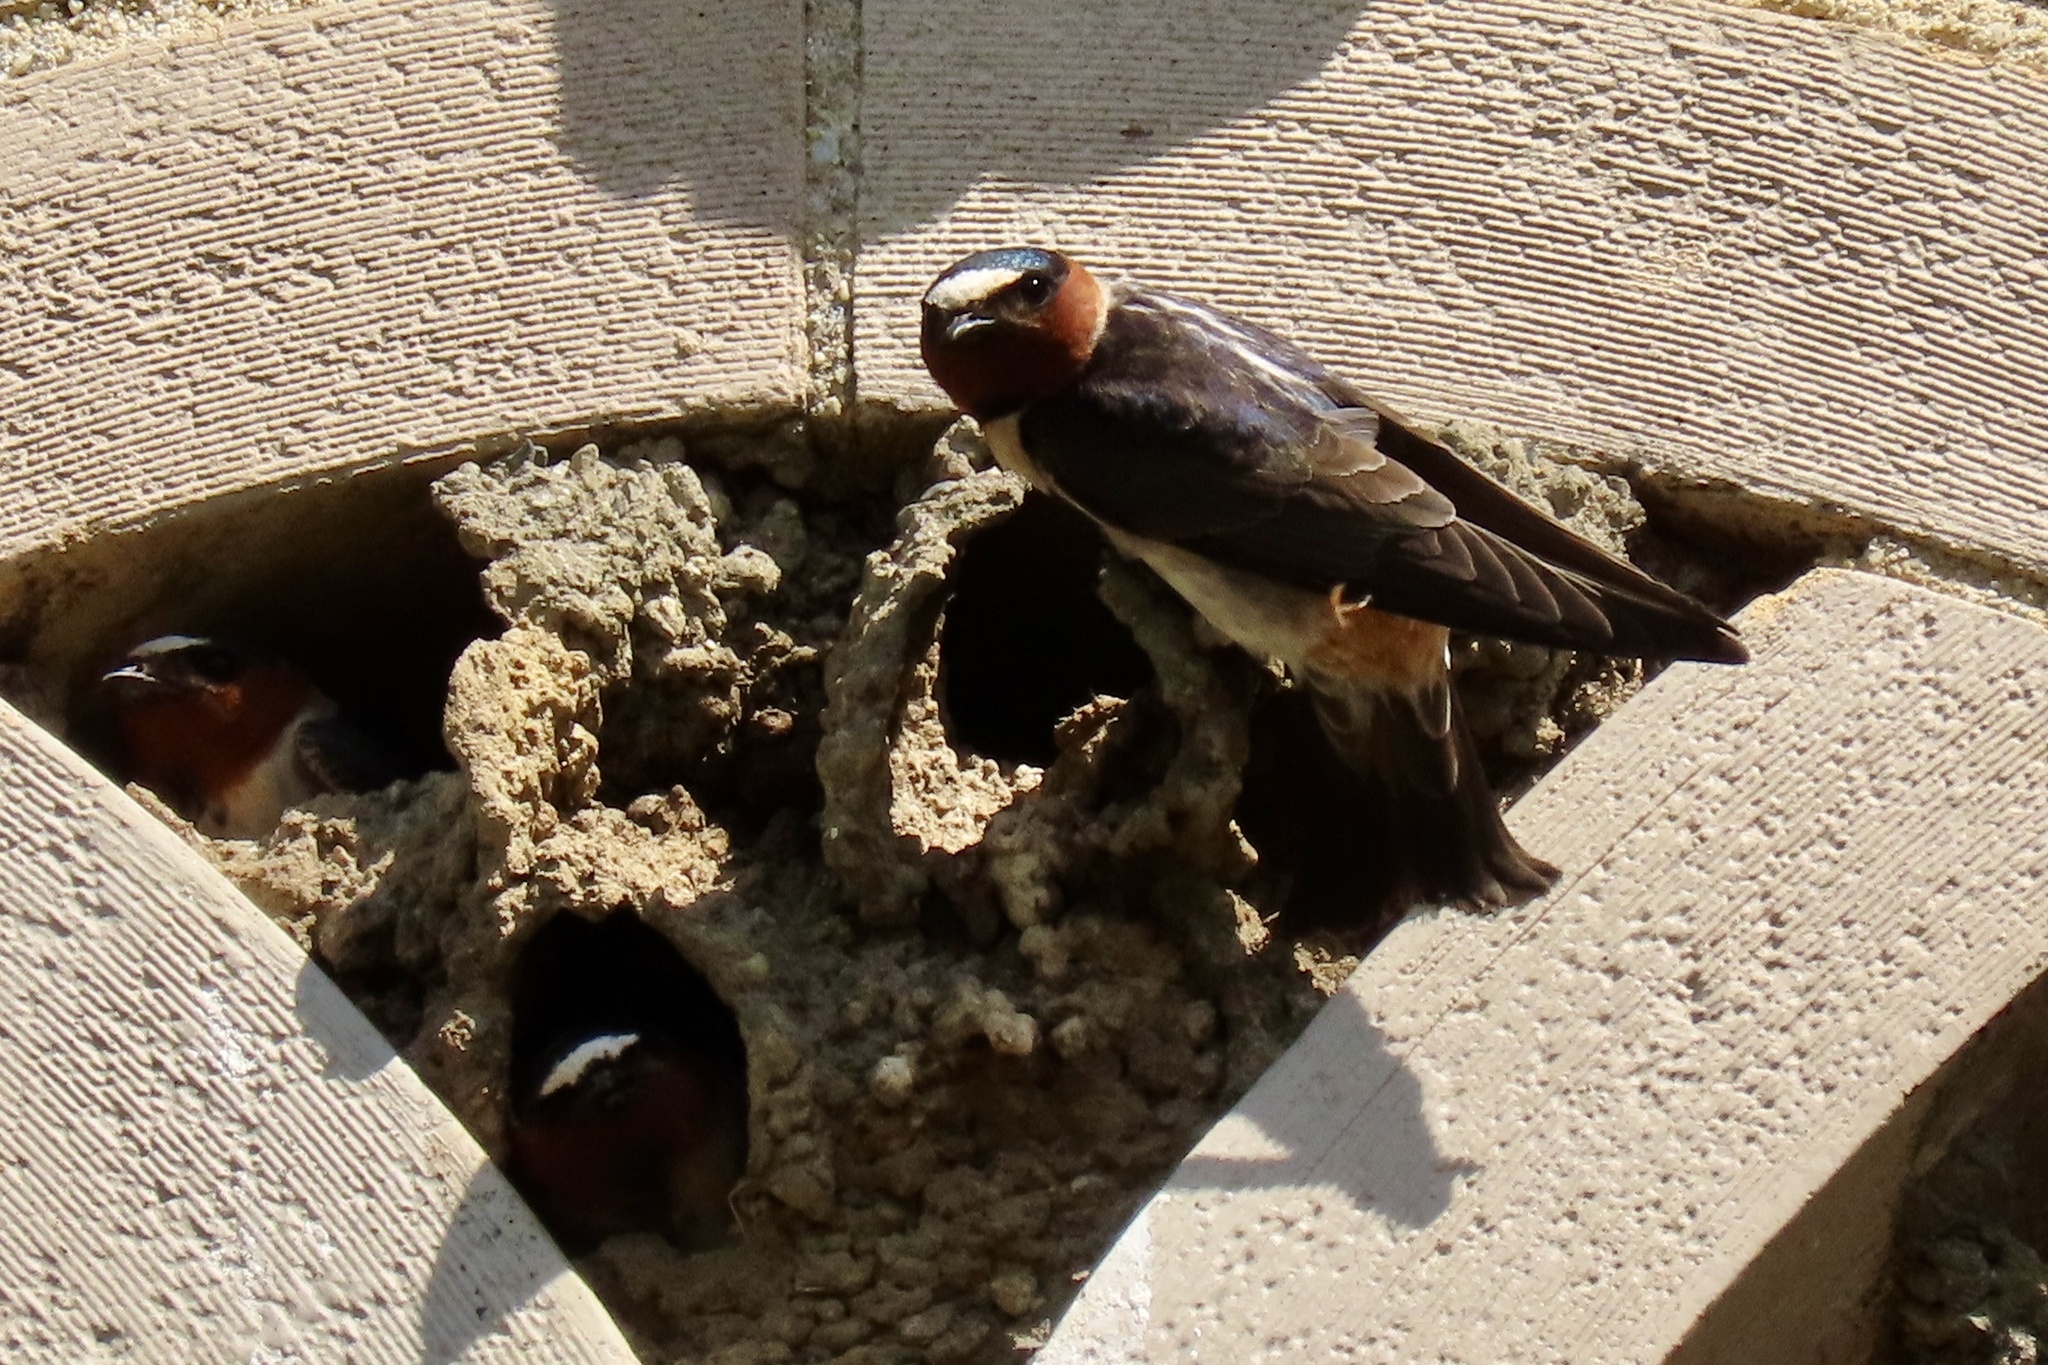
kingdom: Animalia
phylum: Chordata
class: Aves
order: Passeriformes
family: Hirundinidae
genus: Petrochelidon
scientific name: Petrochelidon pyrrhonota
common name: American cliff swallow
